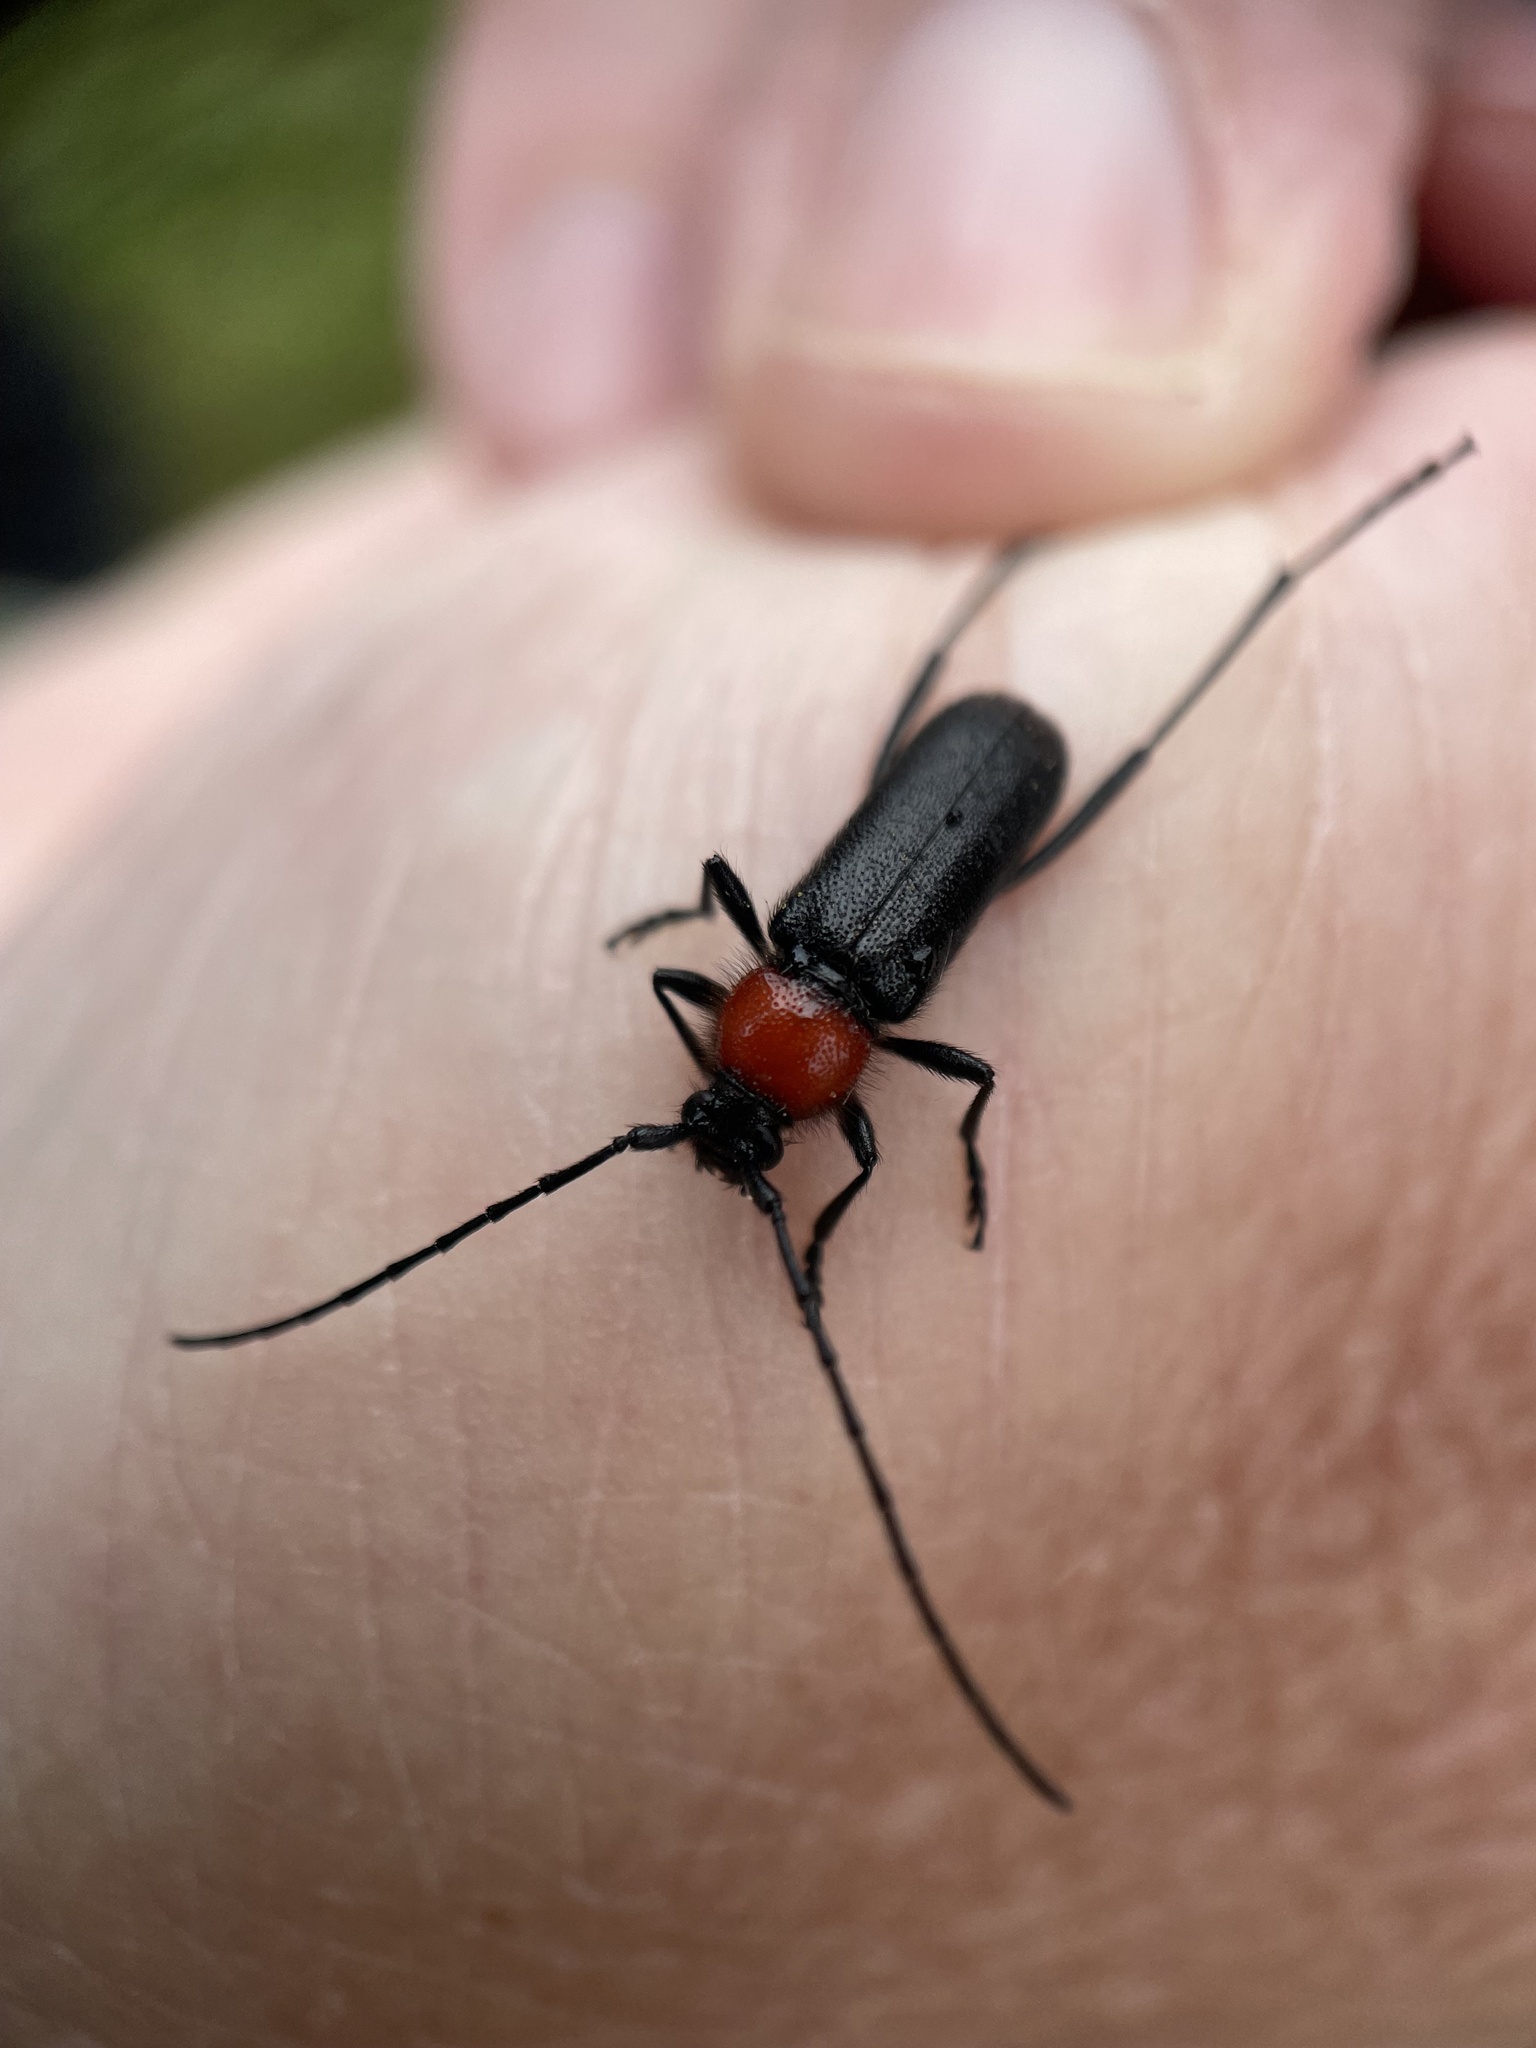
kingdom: Animalia
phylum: Arthropoda
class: Insecta
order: Coleoptera
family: Cerambycidae
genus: Batyle
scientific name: Batyle ignicollis
